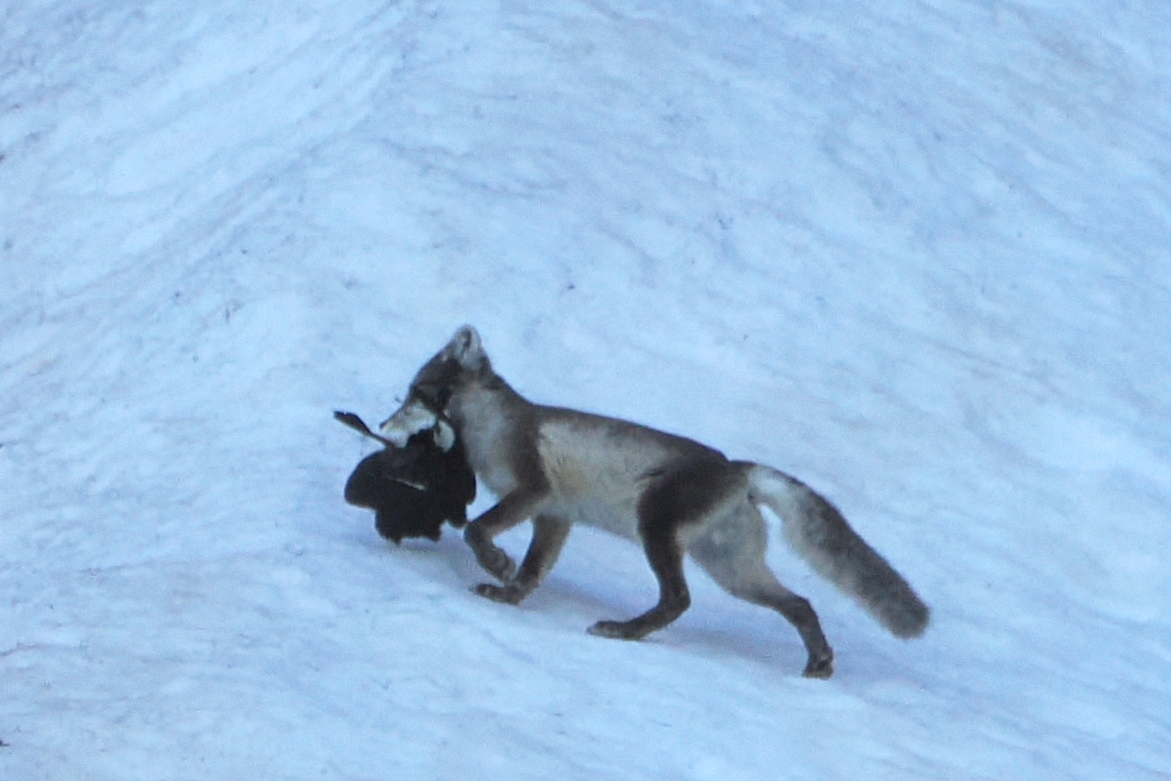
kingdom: Animalia
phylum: Chordata
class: Mammalia
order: Carnivora
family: Canidae
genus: Vulpes
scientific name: Vulpes lagopus
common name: Arctic fox
